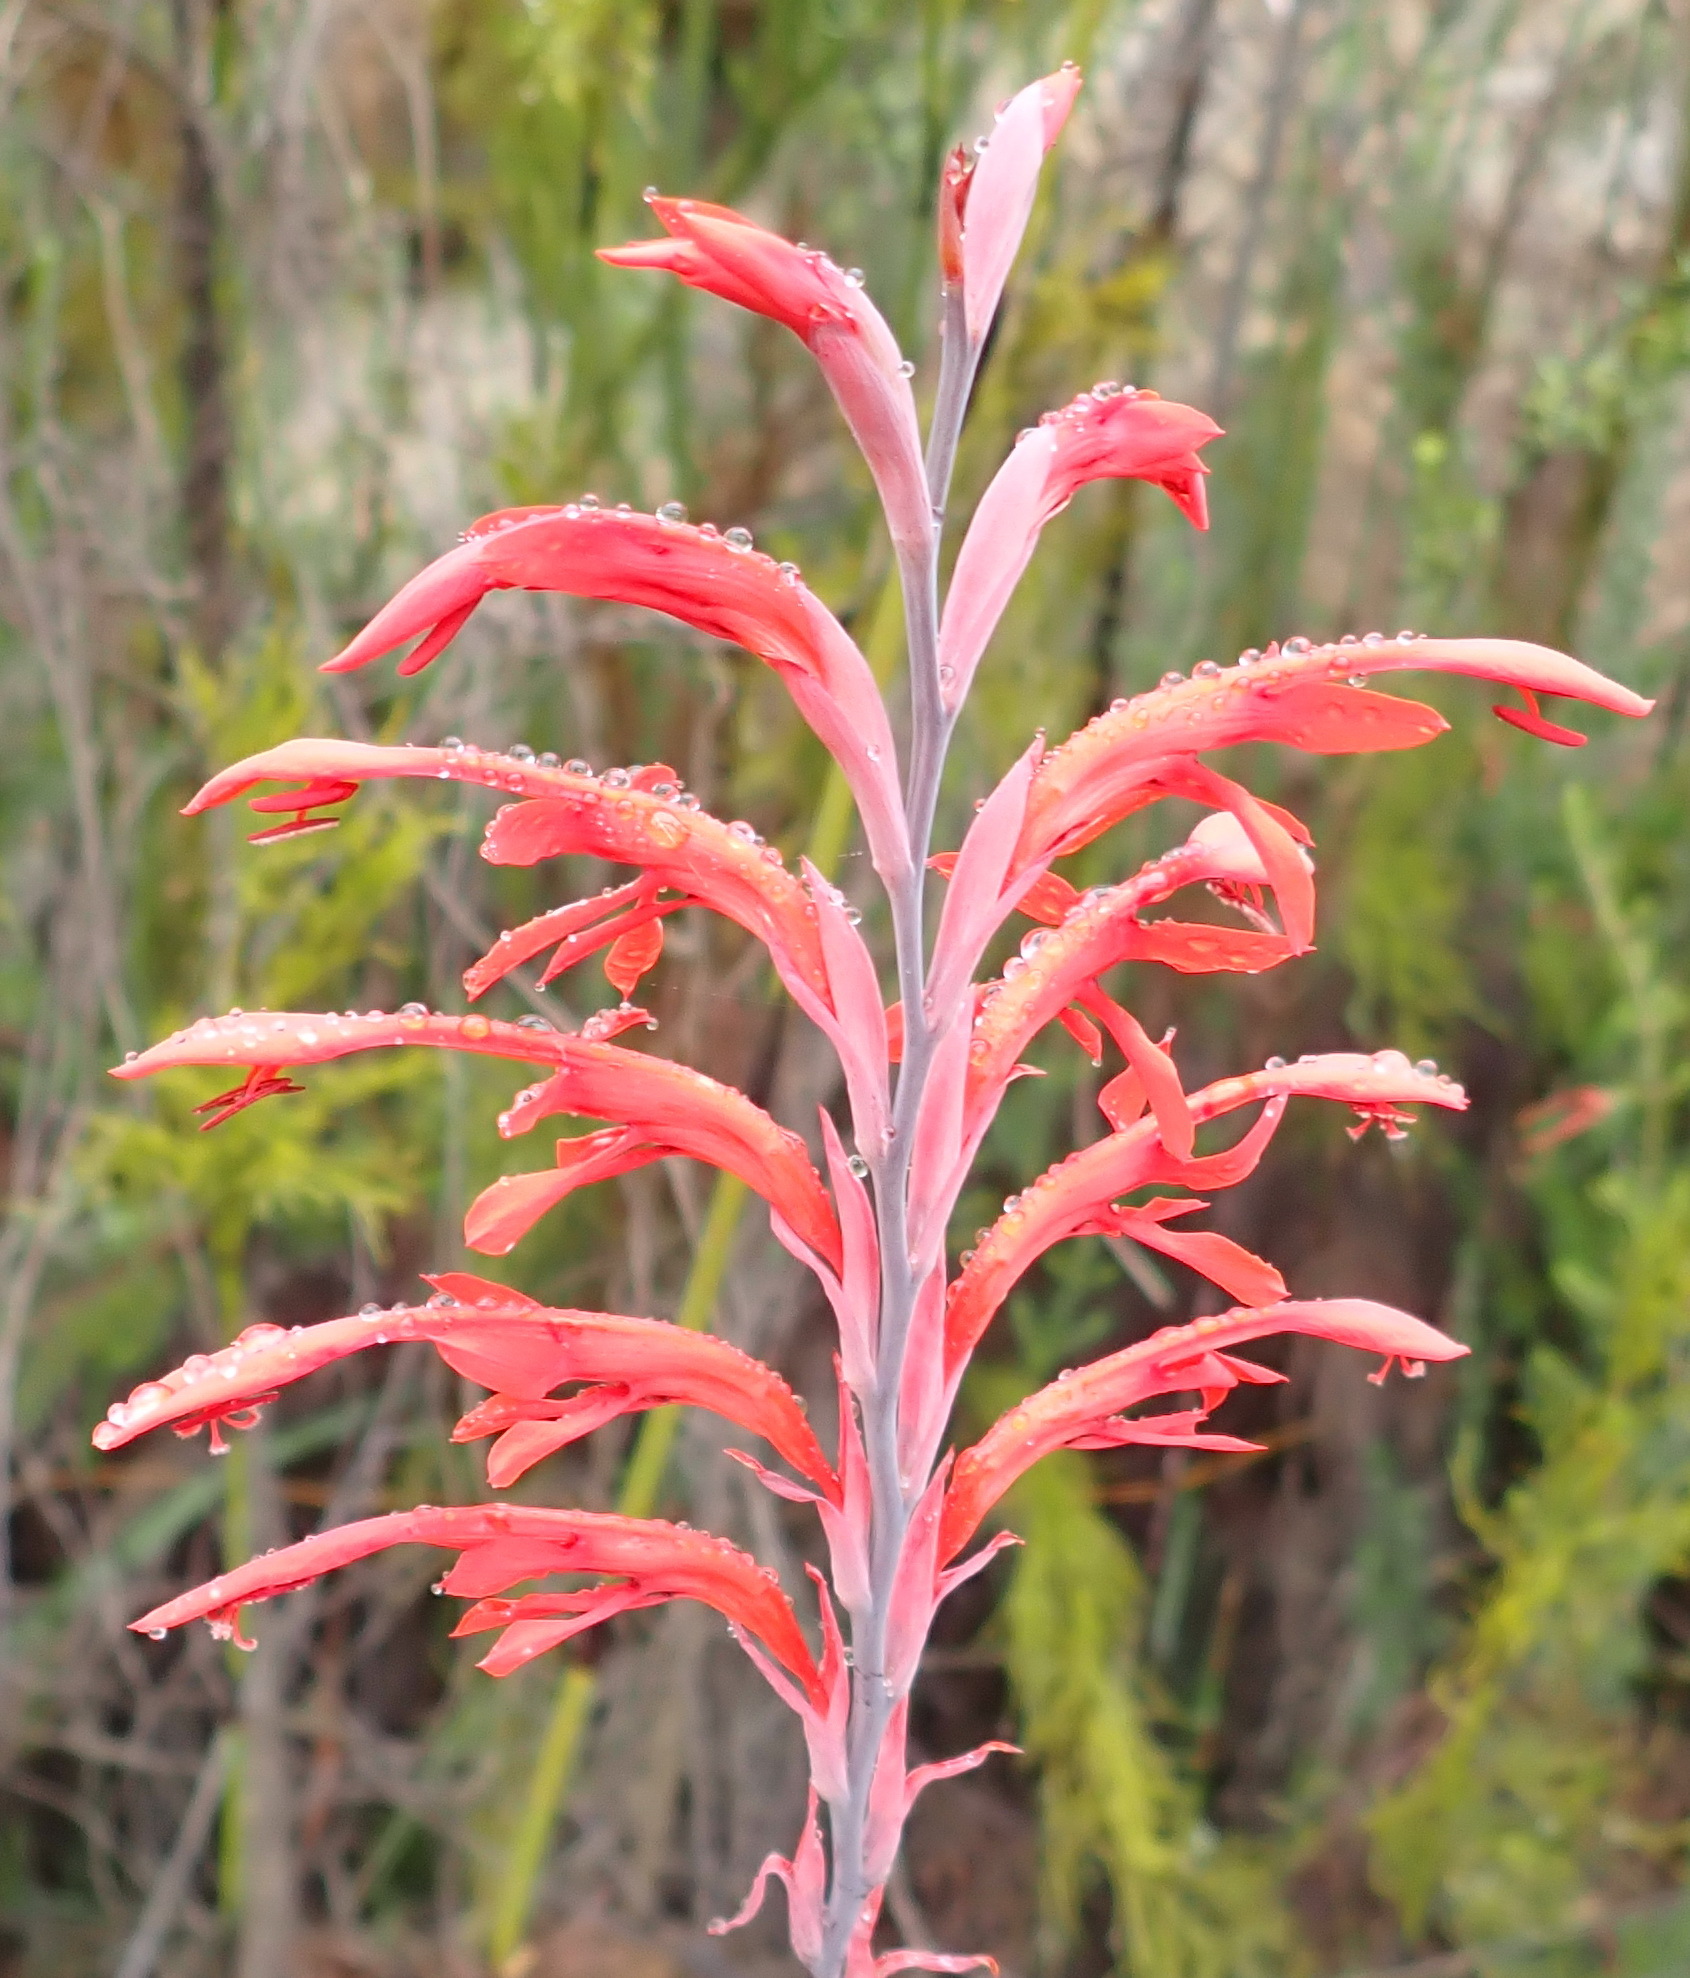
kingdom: Plantae
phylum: Tracheophyta
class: Liliopsida
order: Asparagales
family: Iridaceae
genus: Tritoniopsis
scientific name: Tritoniopsis caffra
